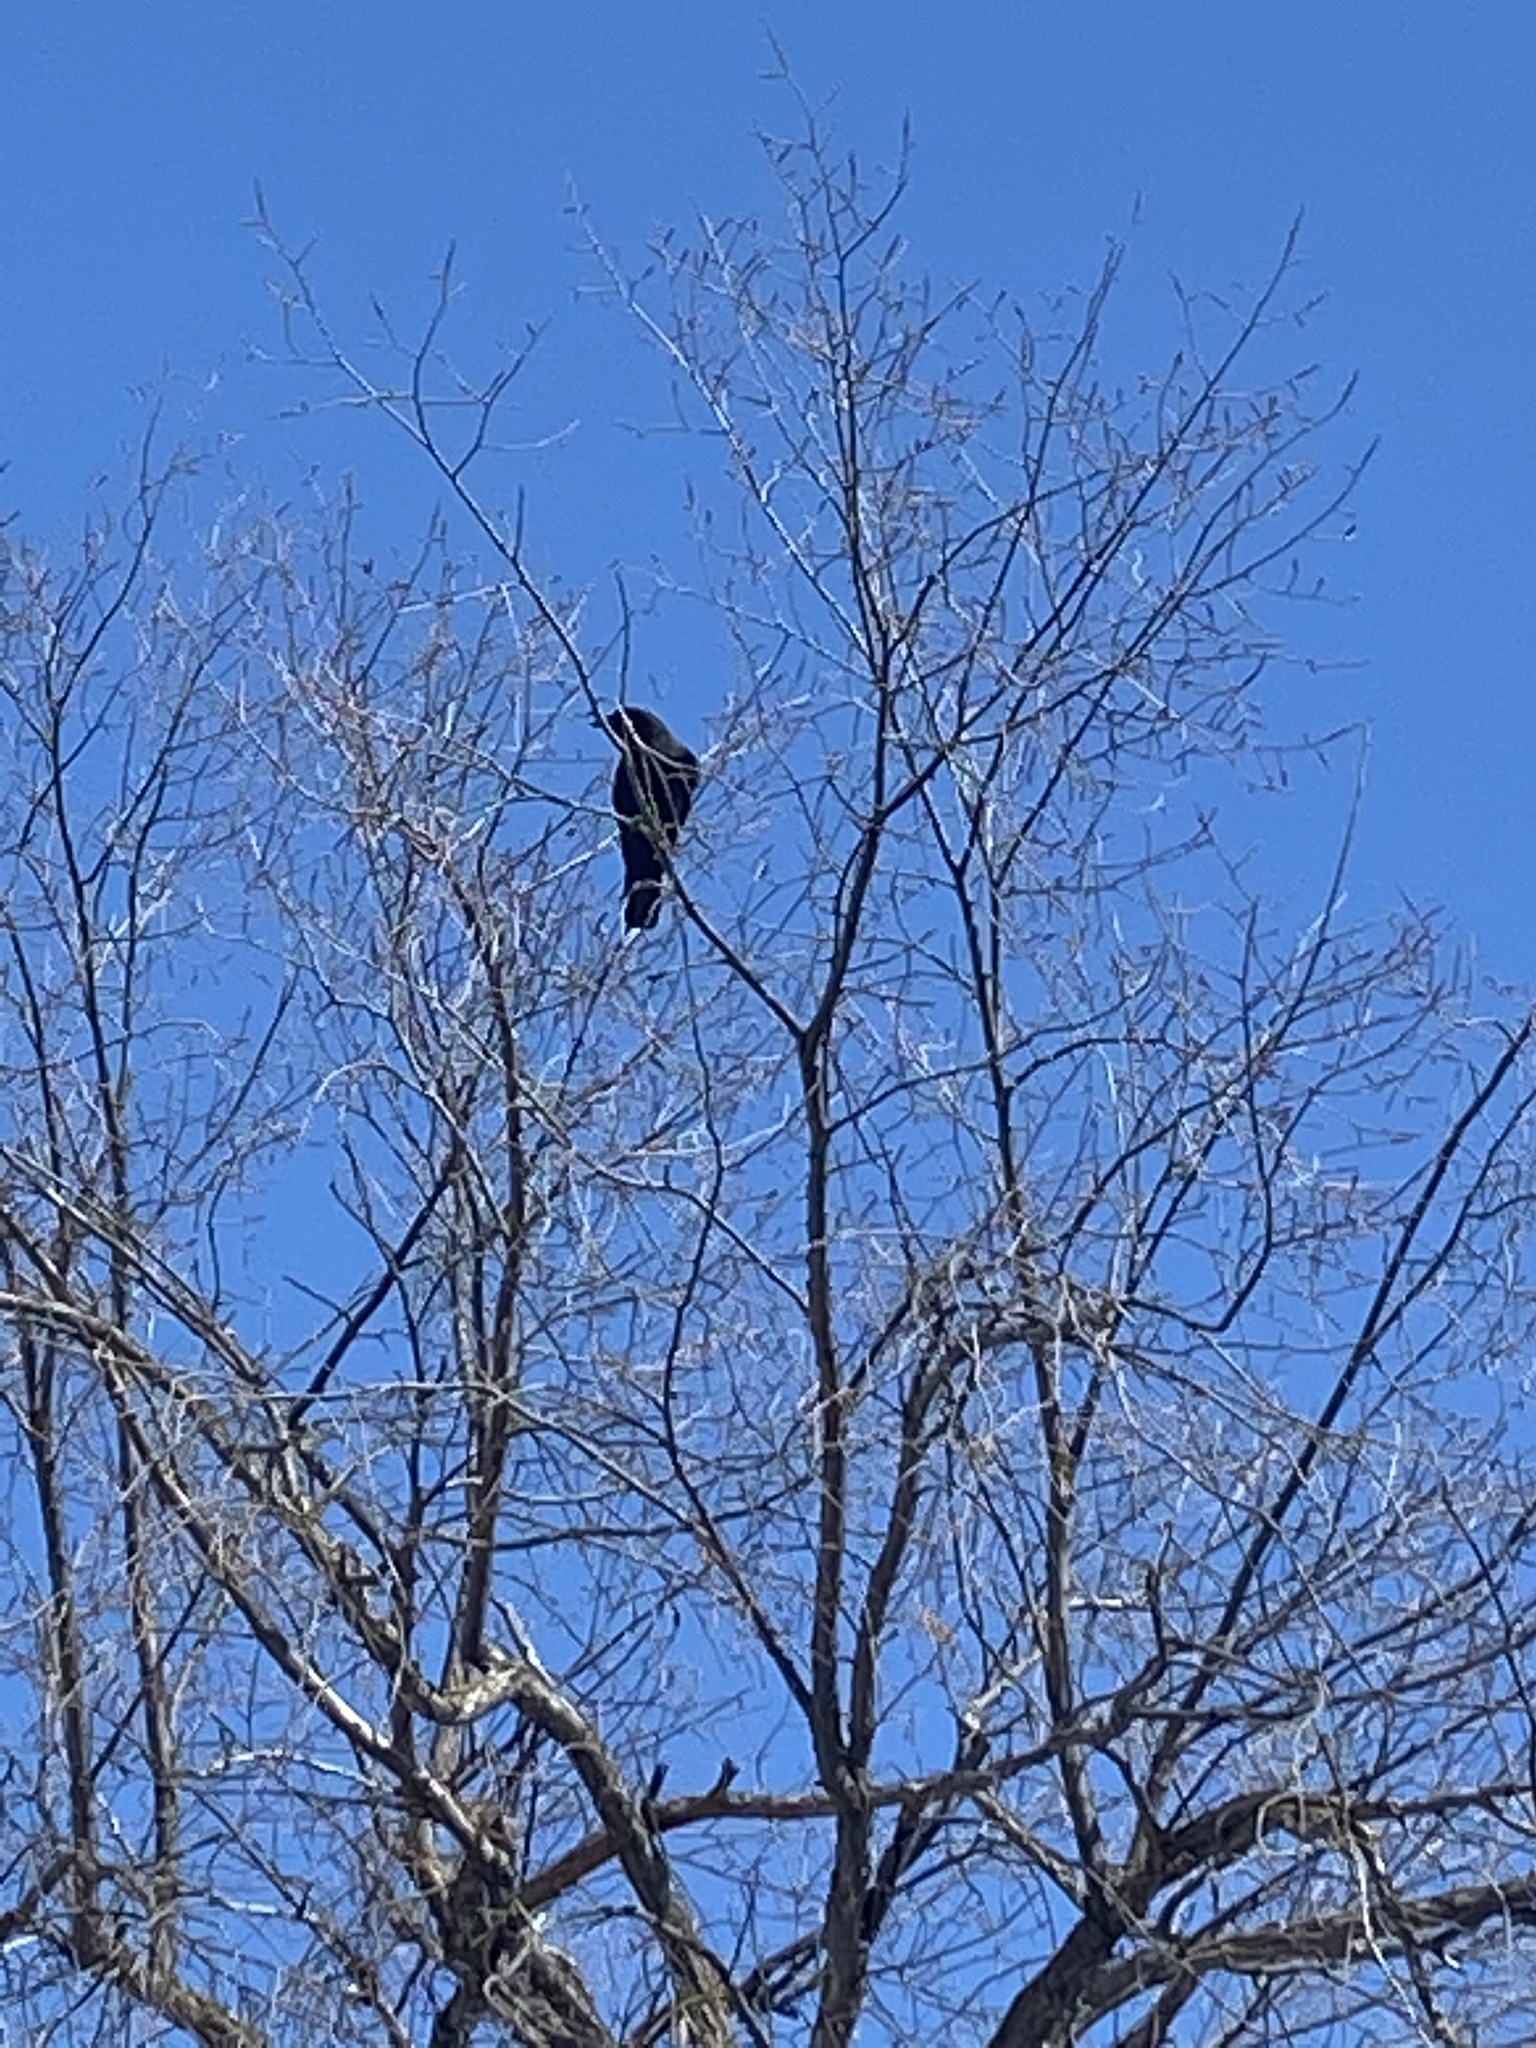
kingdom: Animalia
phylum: Chordata
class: Aves
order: Passeriformes
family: Corvidae
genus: Corvus
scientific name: Corvus brachyrhynchos
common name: American crow
